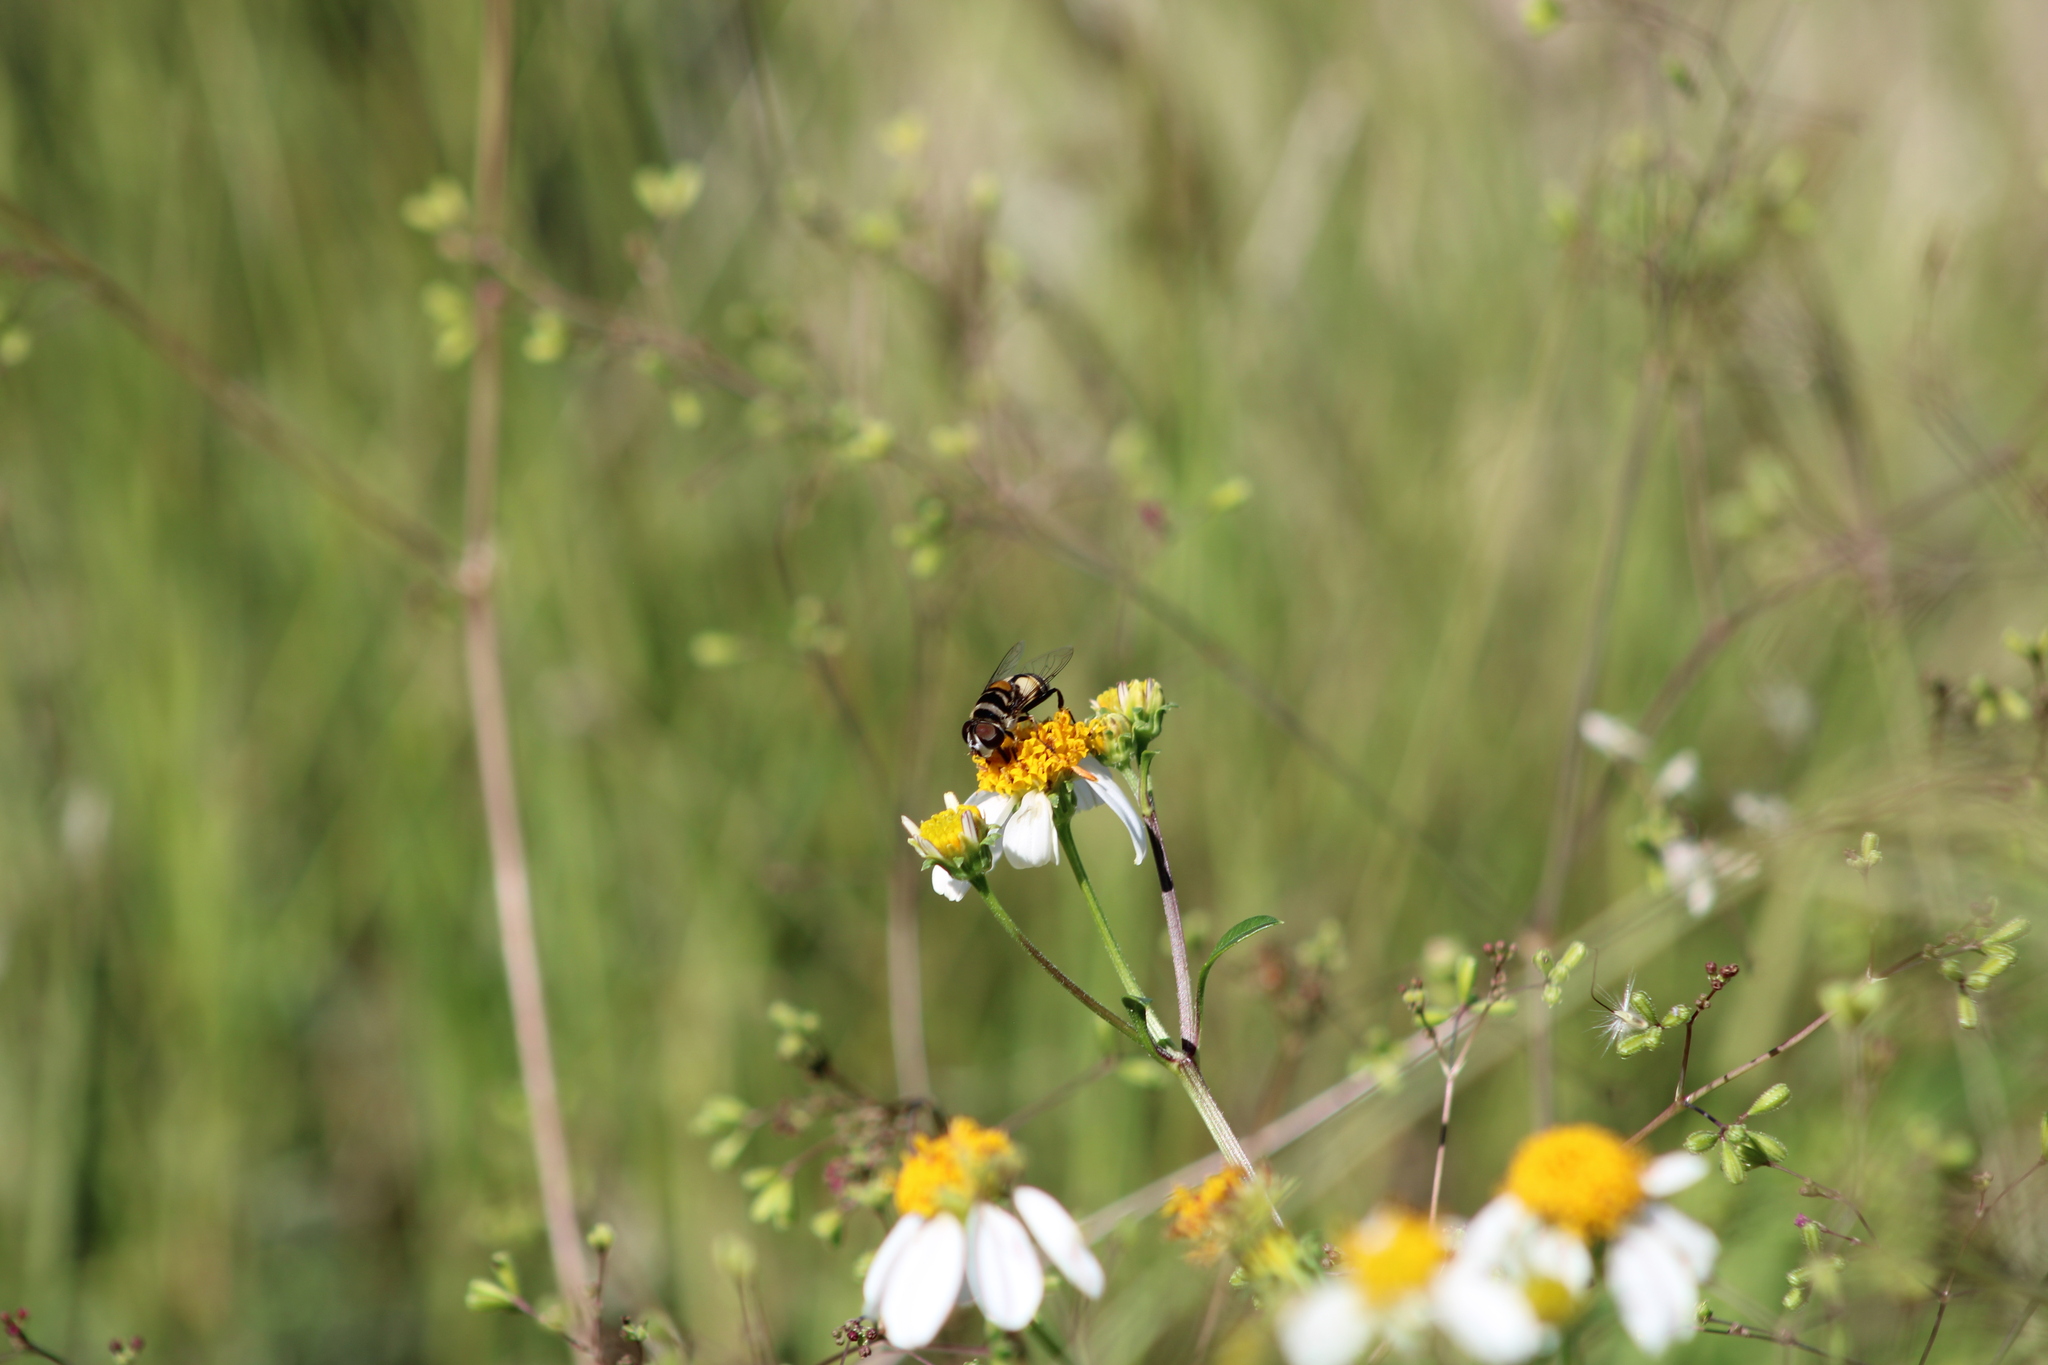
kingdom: Animalia
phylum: Arthropoda
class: Insecta
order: Diptera
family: Syrphidae
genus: Palpada
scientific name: Palpada albifrons
